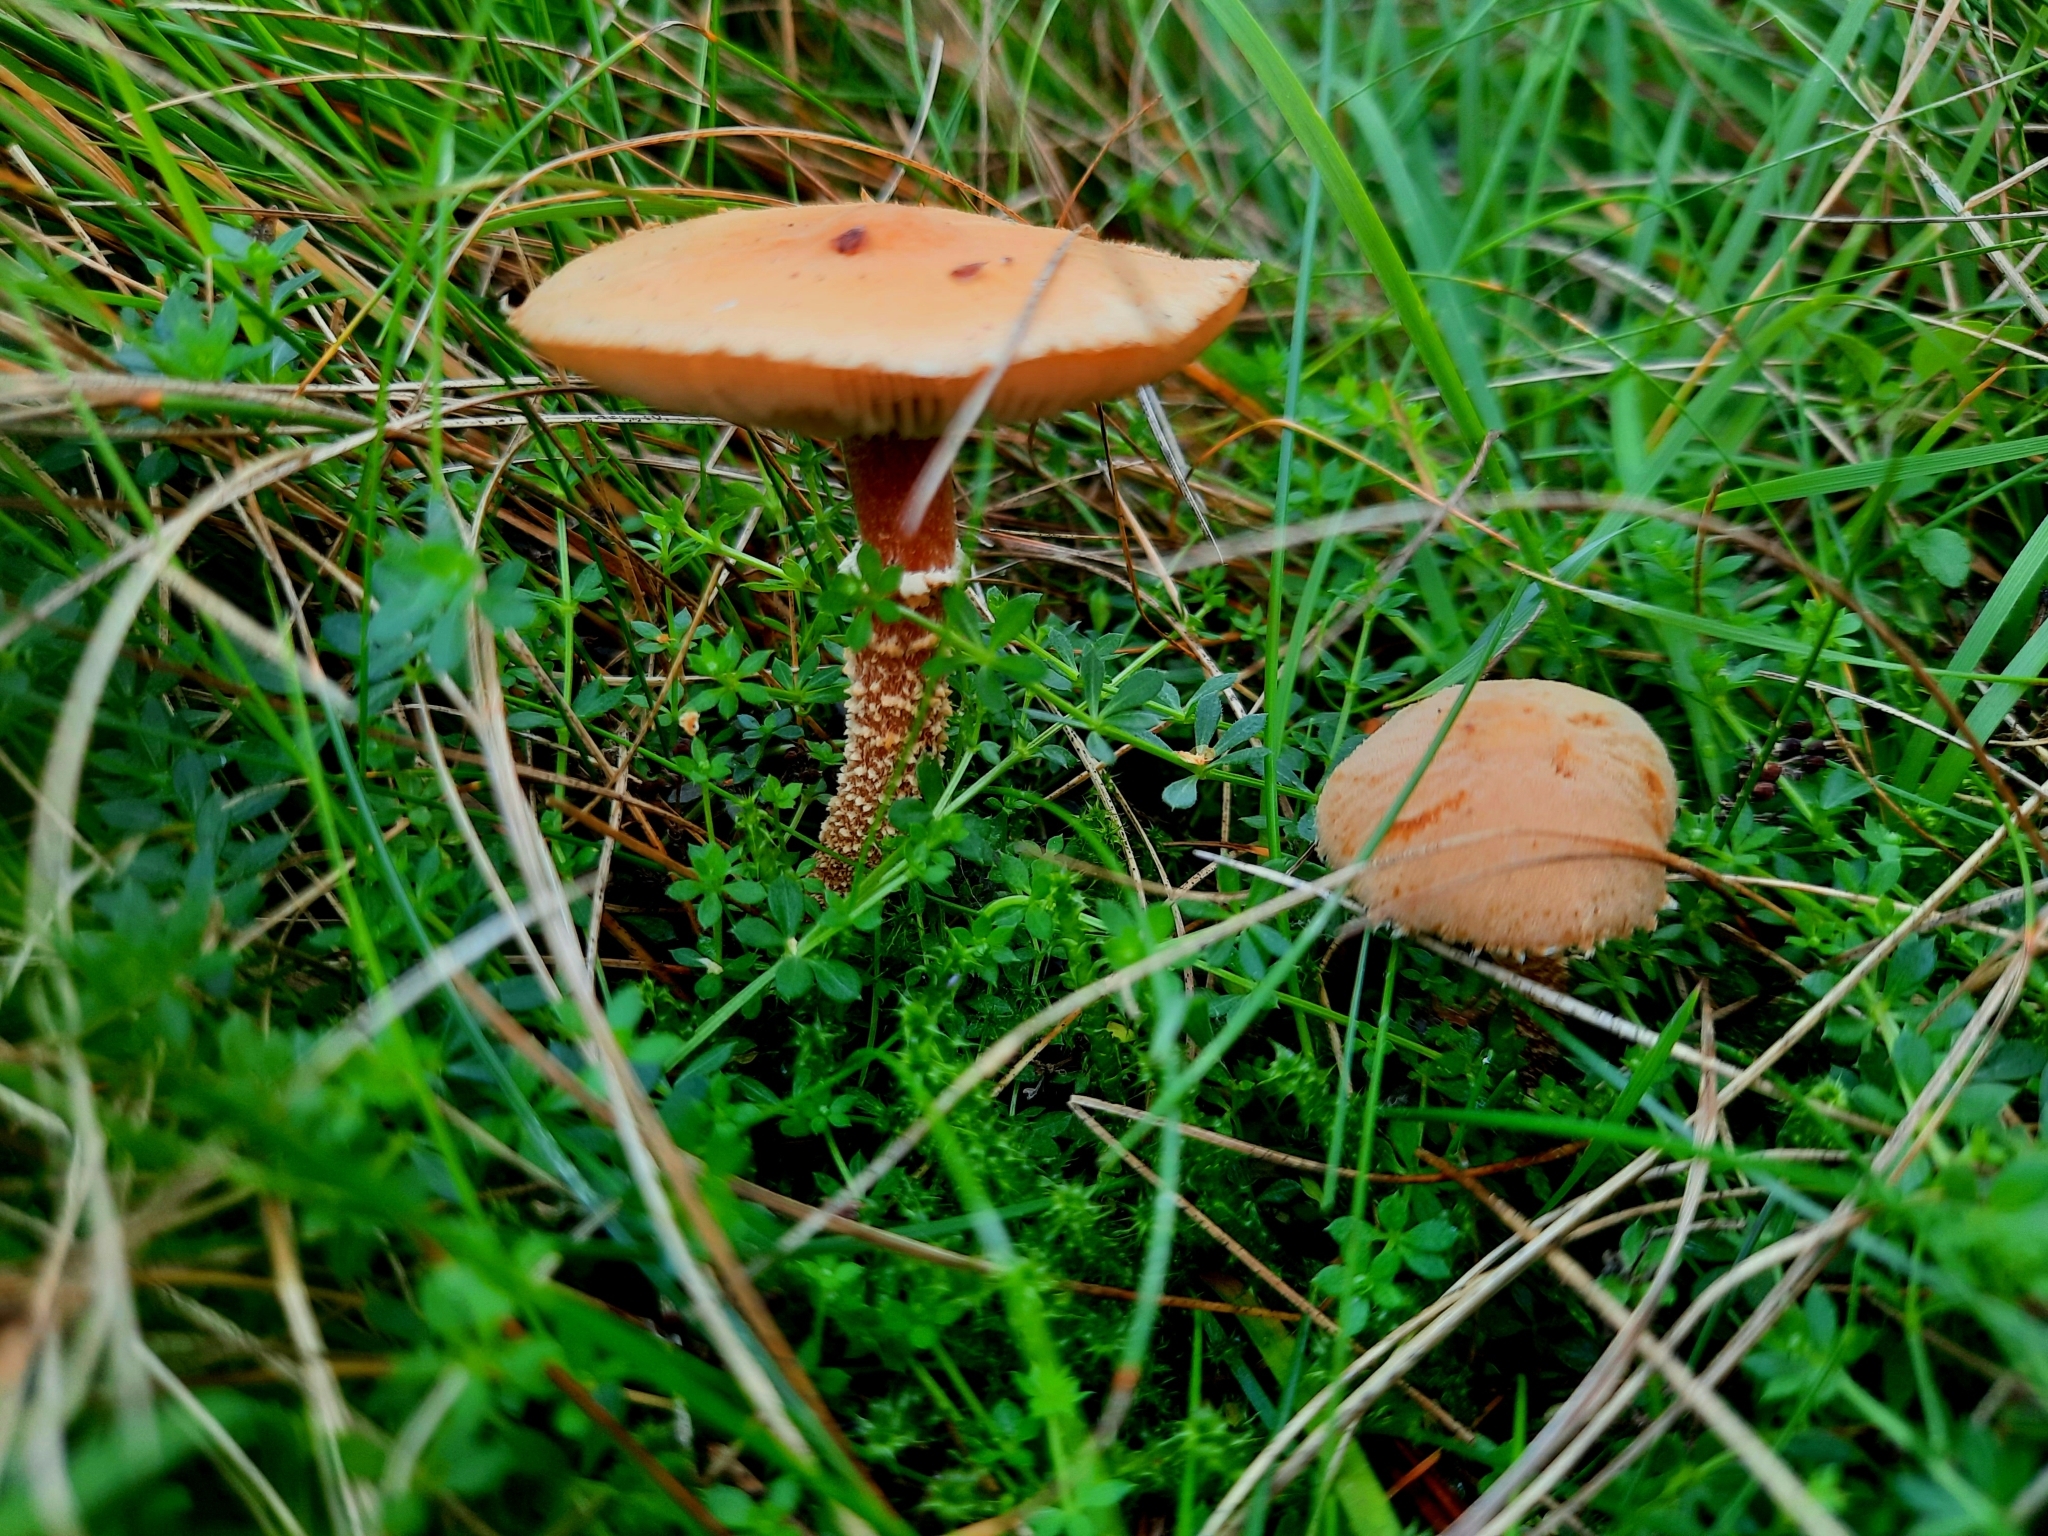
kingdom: Fungi
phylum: Basidiomycota
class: Agaricomycetes
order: Agaricales
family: Tricholomataceae
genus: Cystoderma
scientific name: Cystoderma amianthinum
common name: Earthy powdercap
